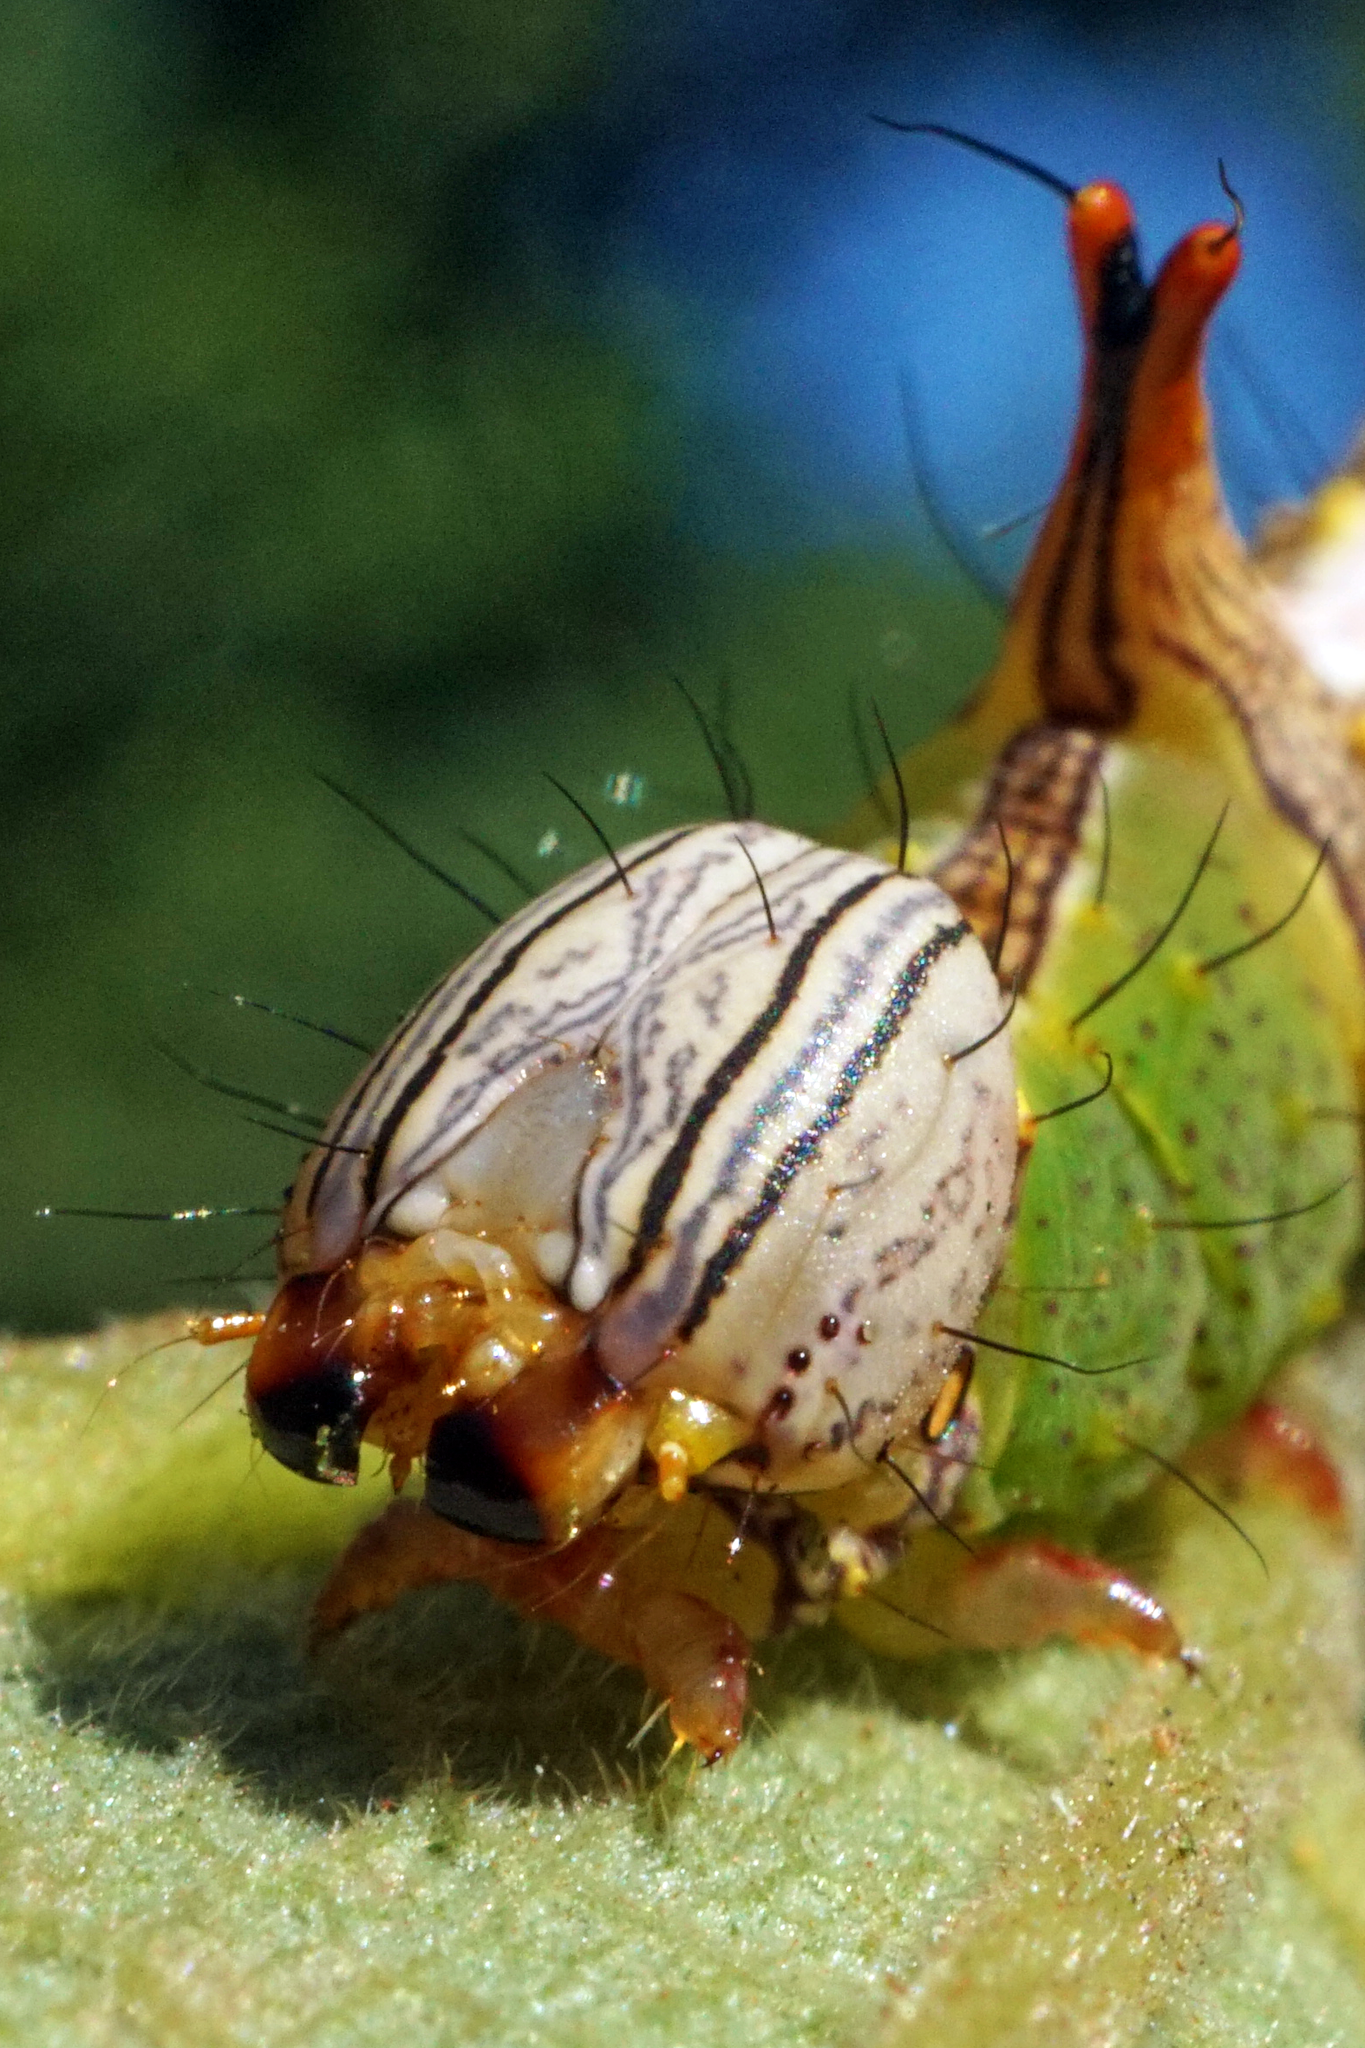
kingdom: Animalia
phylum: Arthropoda
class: Insecta
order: Lepidoptera
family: Notodontidae
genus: Schizura
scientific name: Schizura ipomaeae
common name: Morning-glory prominent
